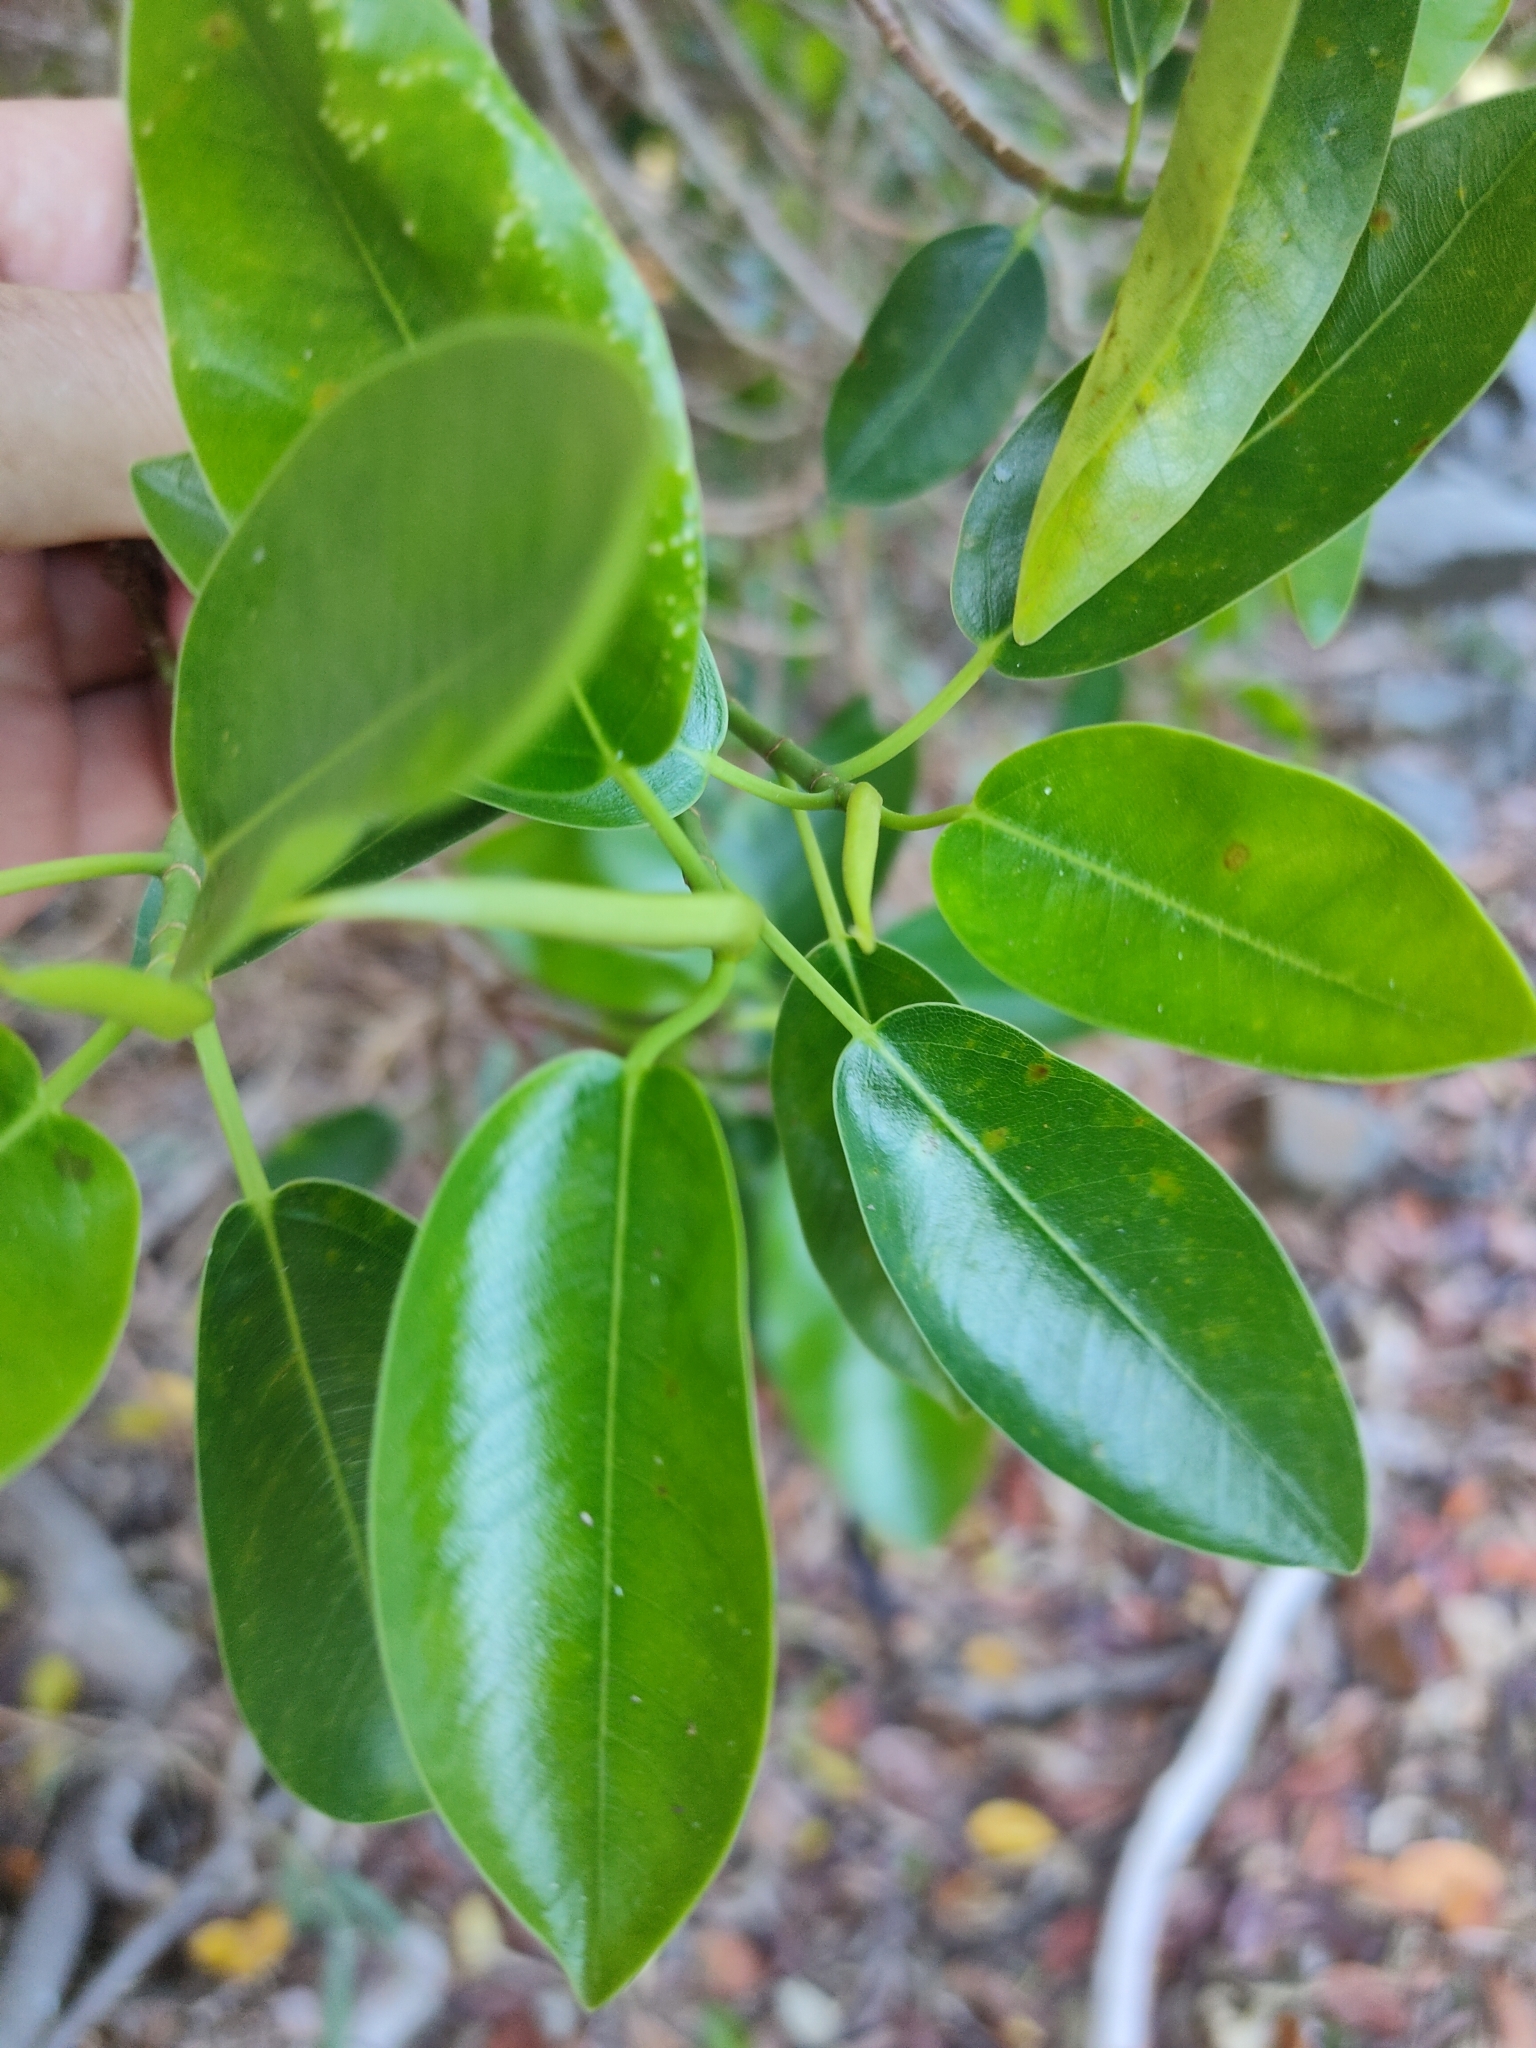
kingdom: Plantae
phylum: Tracheophyta
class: Magnoliopsida
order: Malpighiales
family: Euphorbiaceae
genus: Excoecaria
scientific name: Excoecaria agallocha
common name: River poisontree
